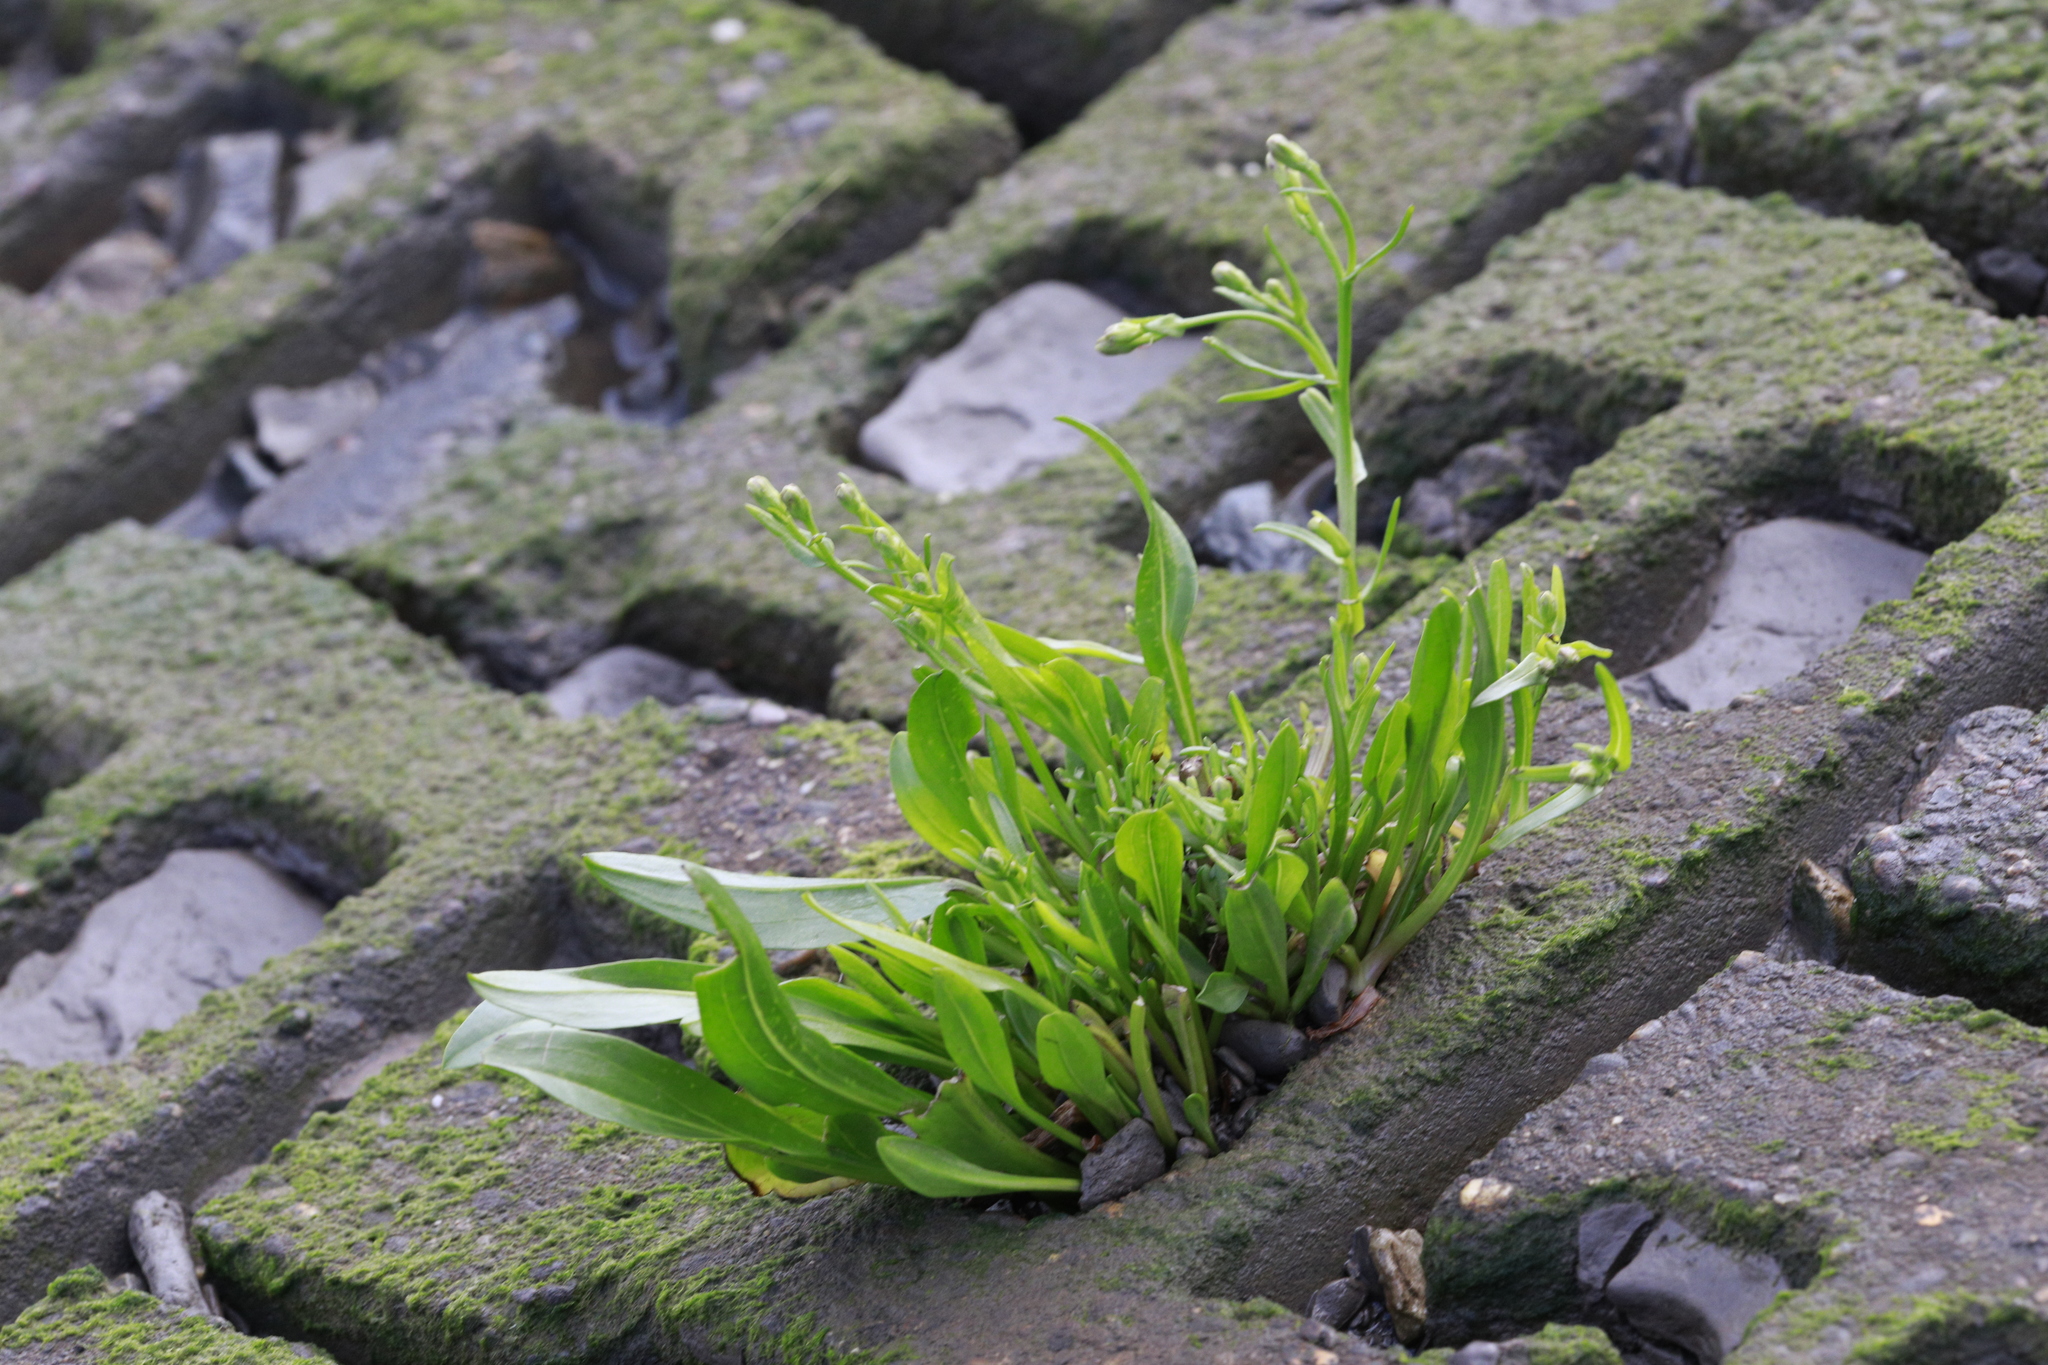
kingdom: Plantae
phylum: Tracheophyta
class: Magnoliopsida
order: Asterales
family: Asteraceae
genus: Tripolium
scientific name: Tripolium pannonicum
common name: Sea aster
